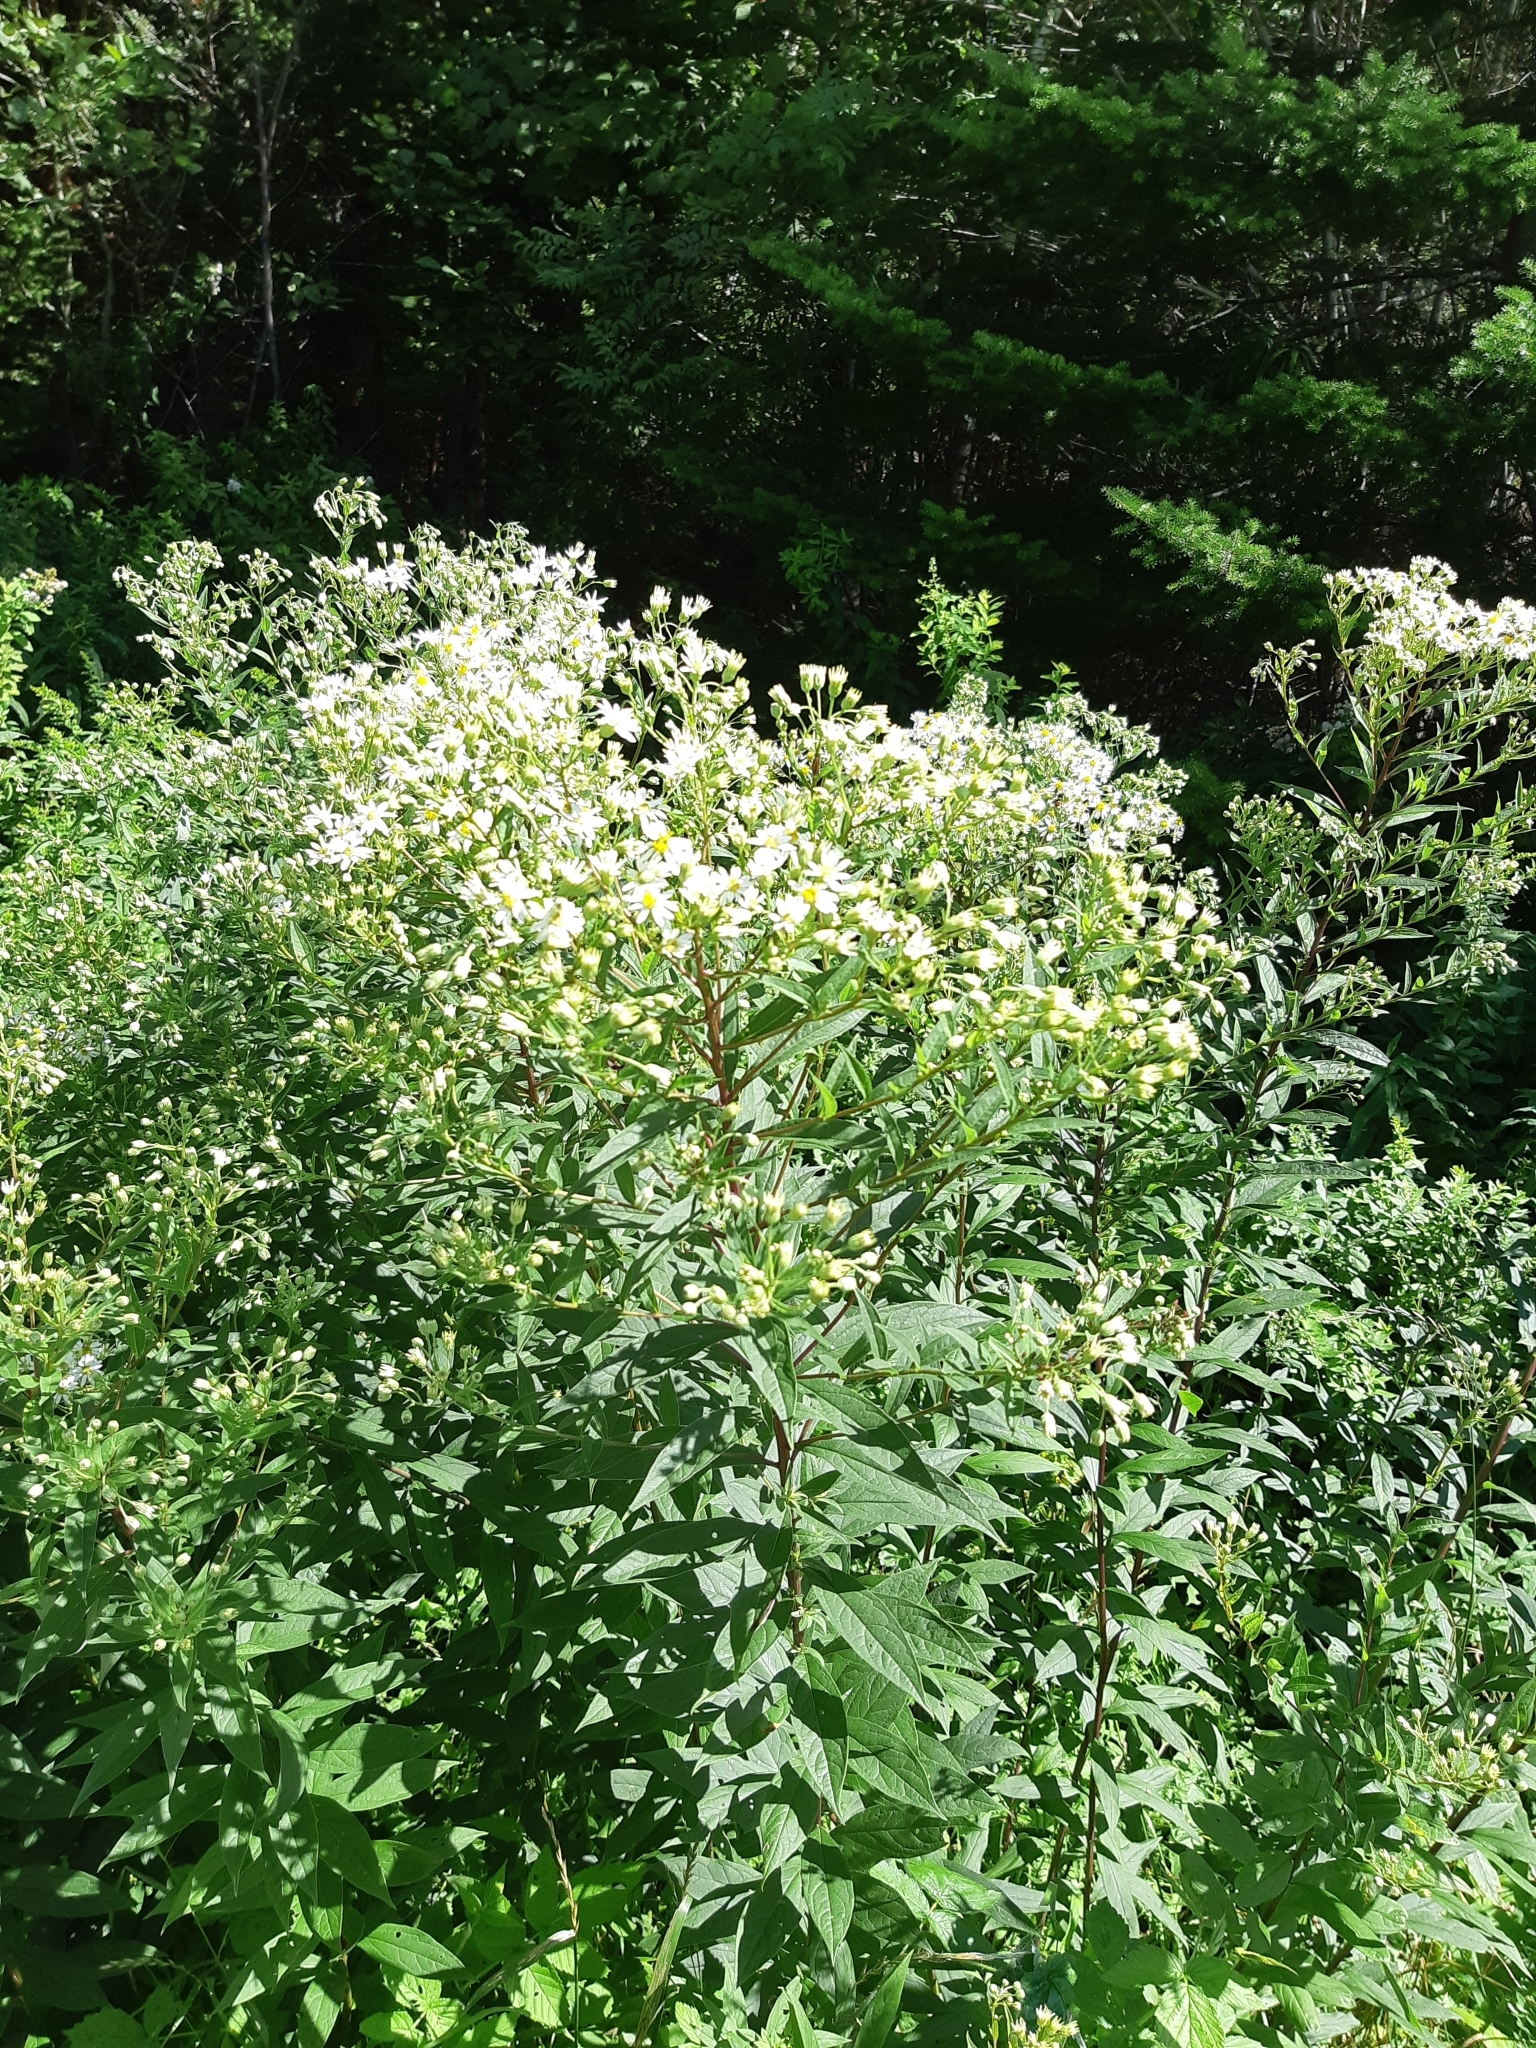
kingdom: Plantae
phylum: Tracheophyta
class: Magnoliopsida
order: Asterales
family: Asteraceae
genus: Doellingeria
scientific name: Doellingeria umbellata
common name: Flat-top white aster
